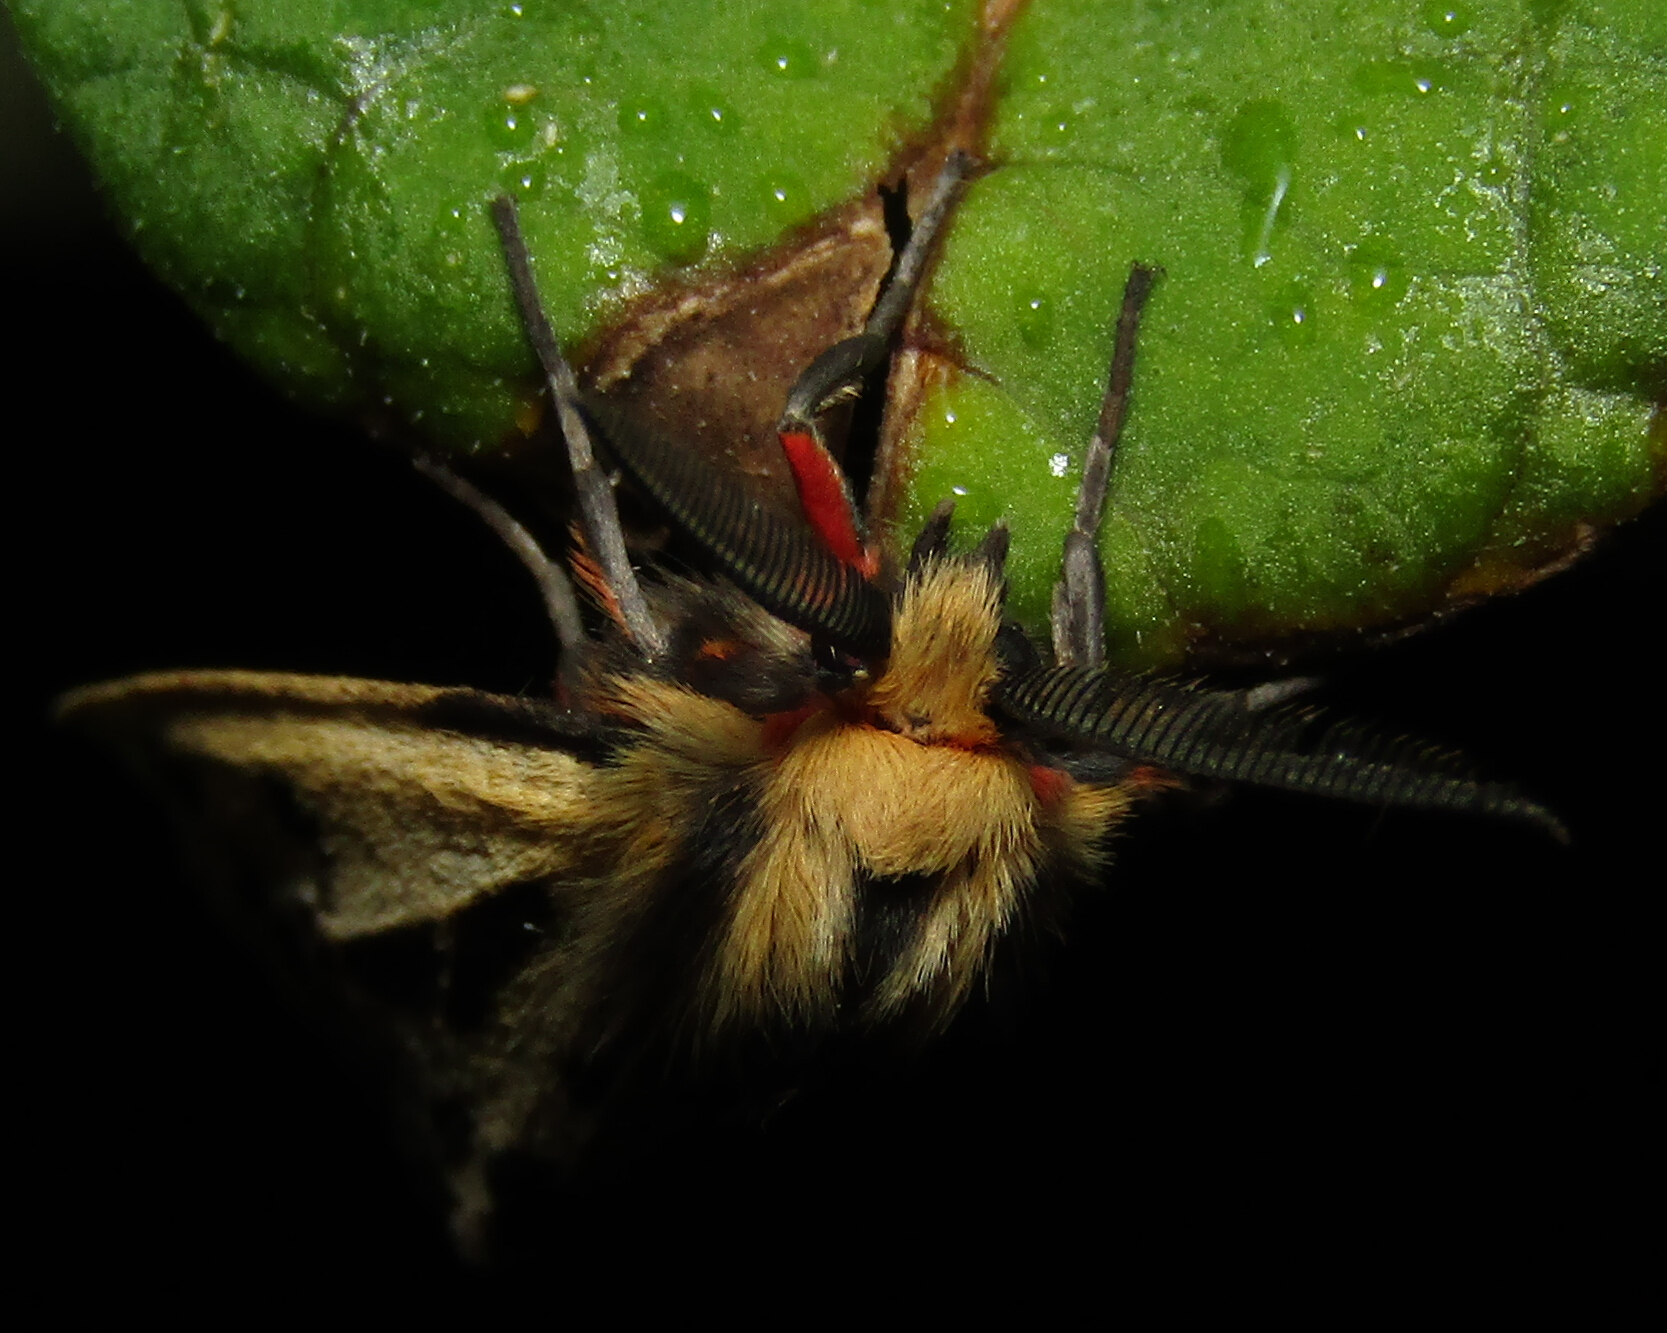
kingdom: Animalia
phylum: Arthropoda
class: Insecta
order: Lepidoptera
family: Erebidae
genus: Ardices
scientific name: Ardices curvata
